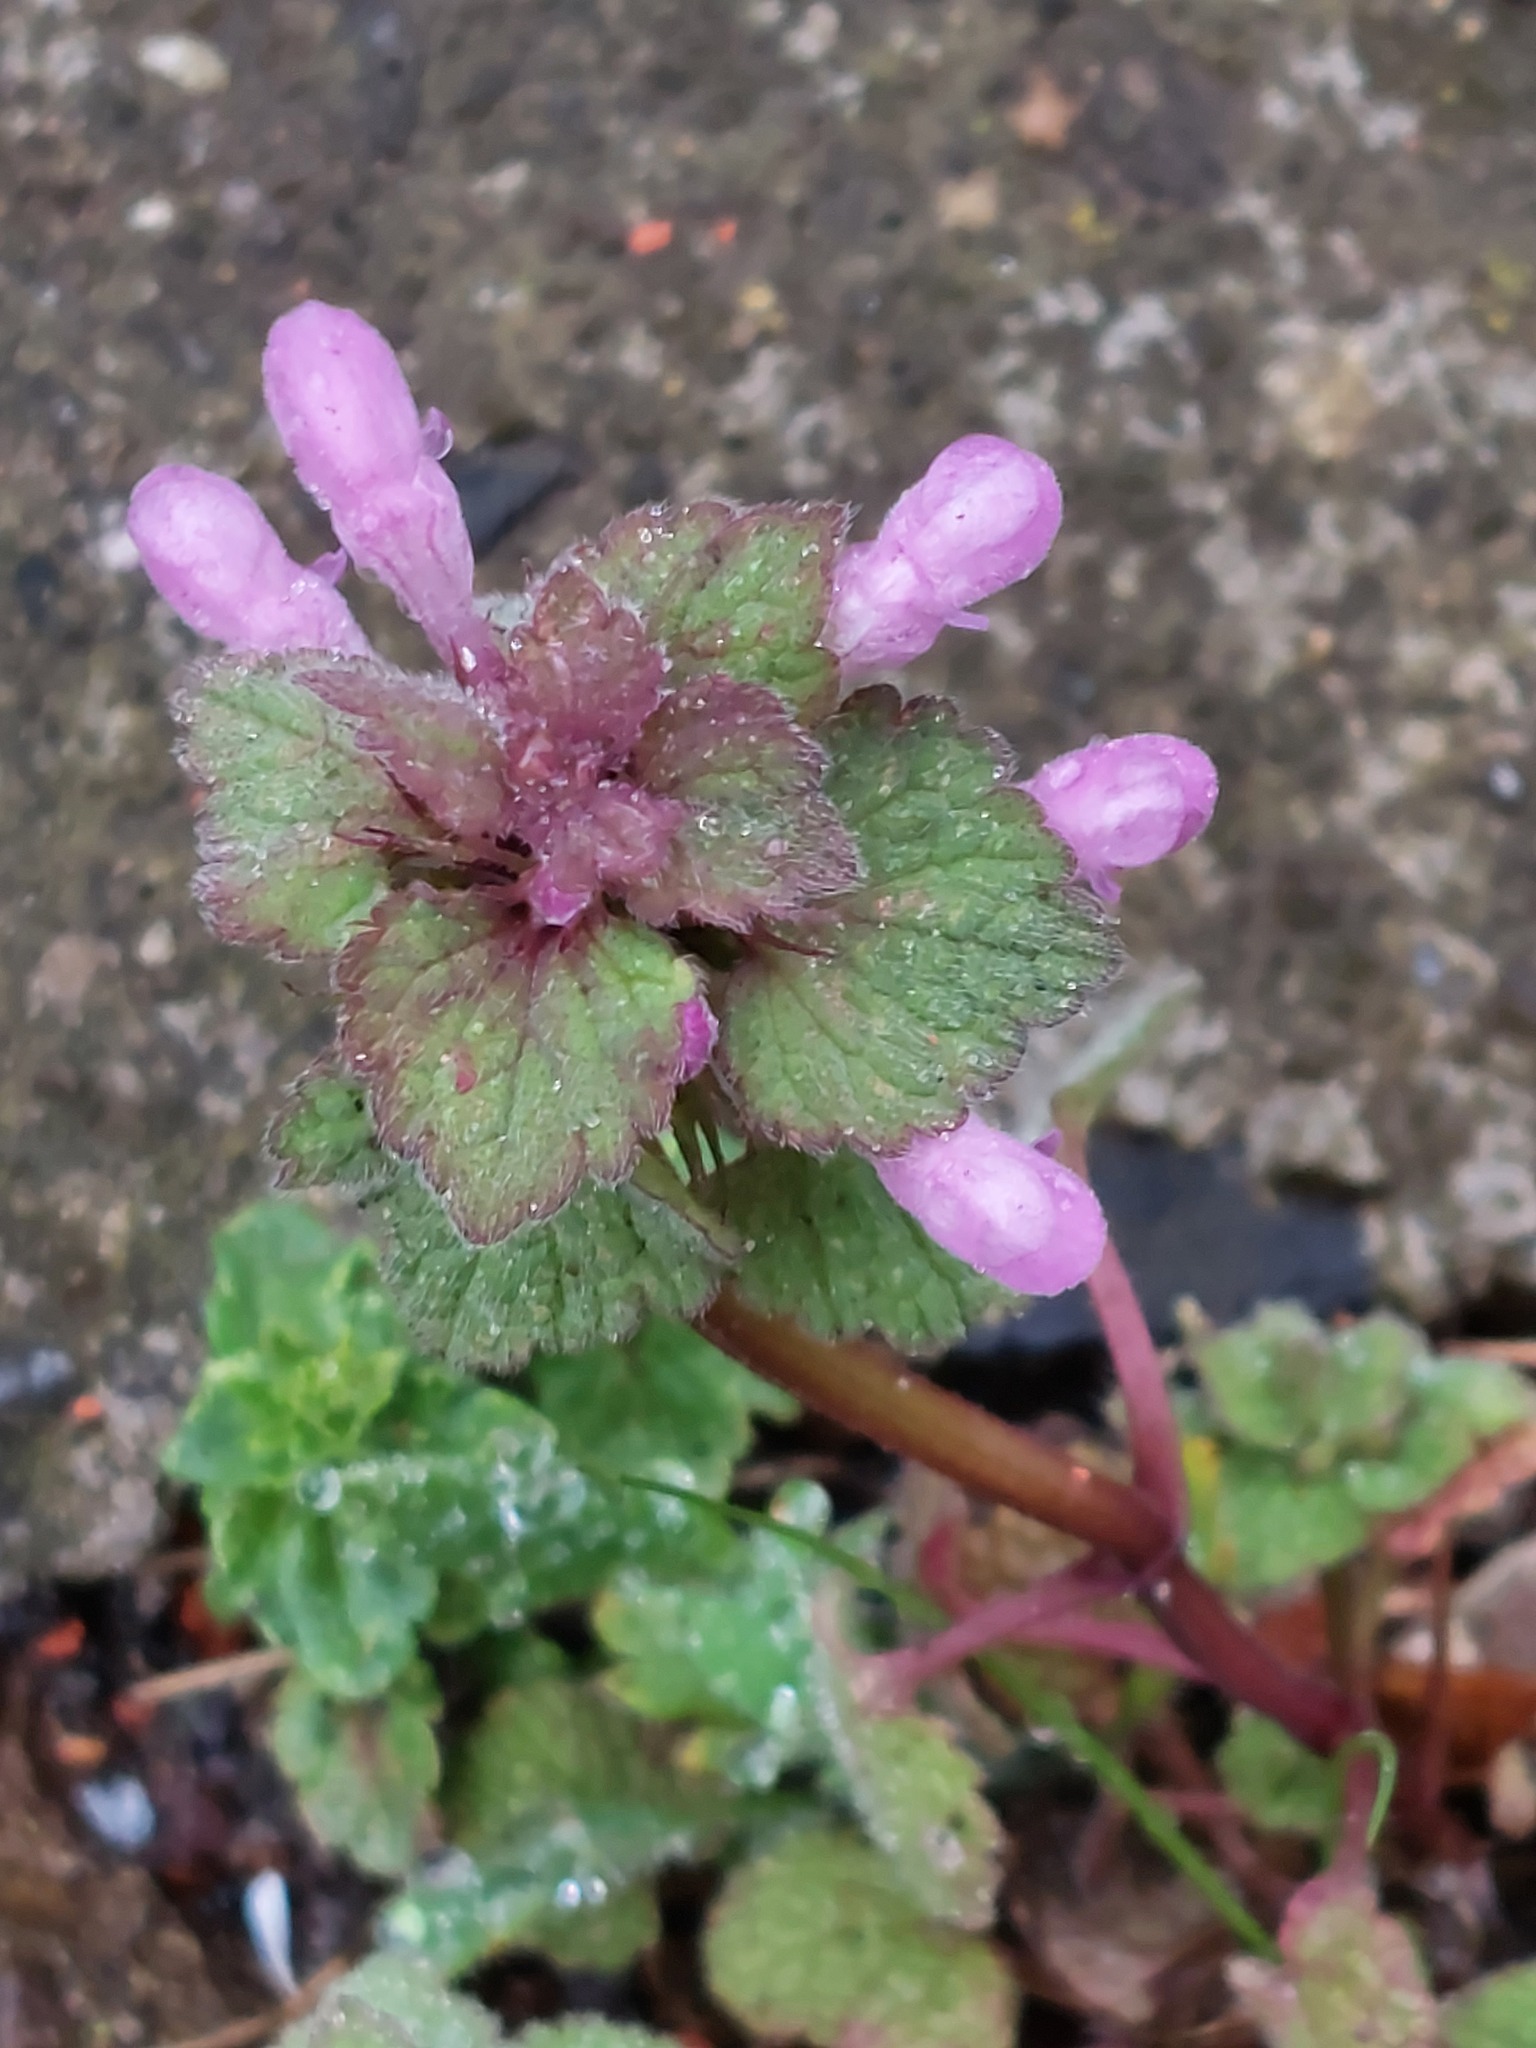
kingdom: Plantae
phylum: Tracheophyta
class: Magnoliopsida
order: Lamiales
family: Lamiaceae
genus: Lamium
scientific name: Lamium purpureum
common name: Red dead-nettle
